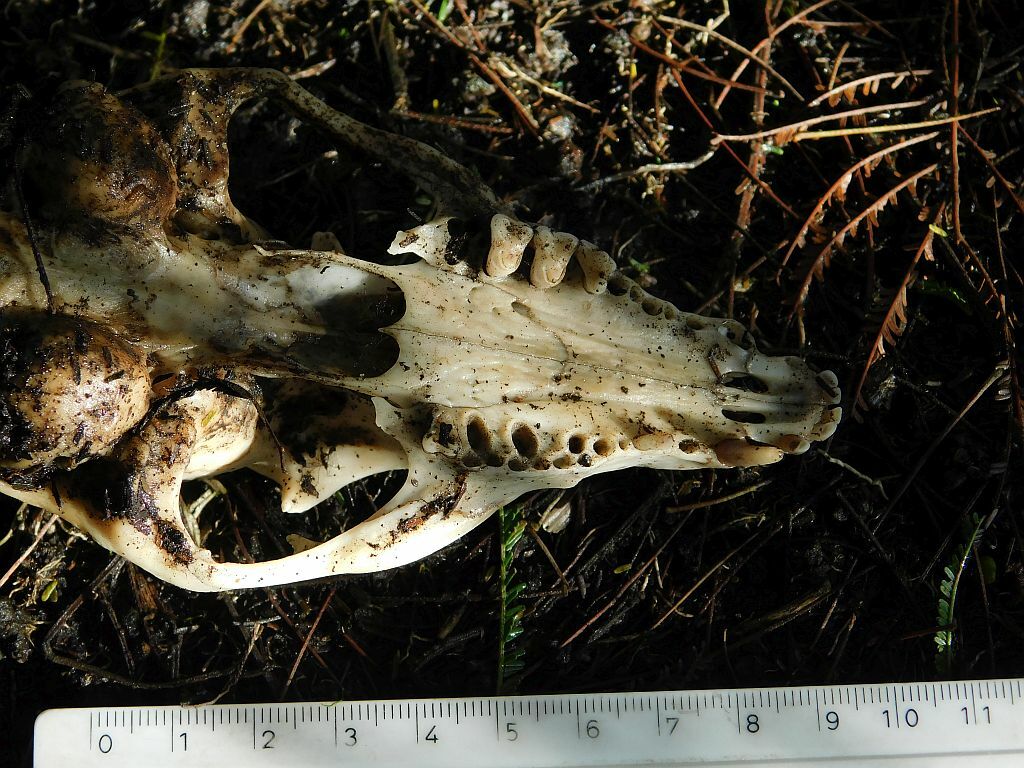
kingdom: Animalia
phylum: Chordata
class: Mammalia
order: Carnivora
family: Canidae
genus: Otocyon
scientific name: Otocyon megalotis
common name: Bat-eared fox
